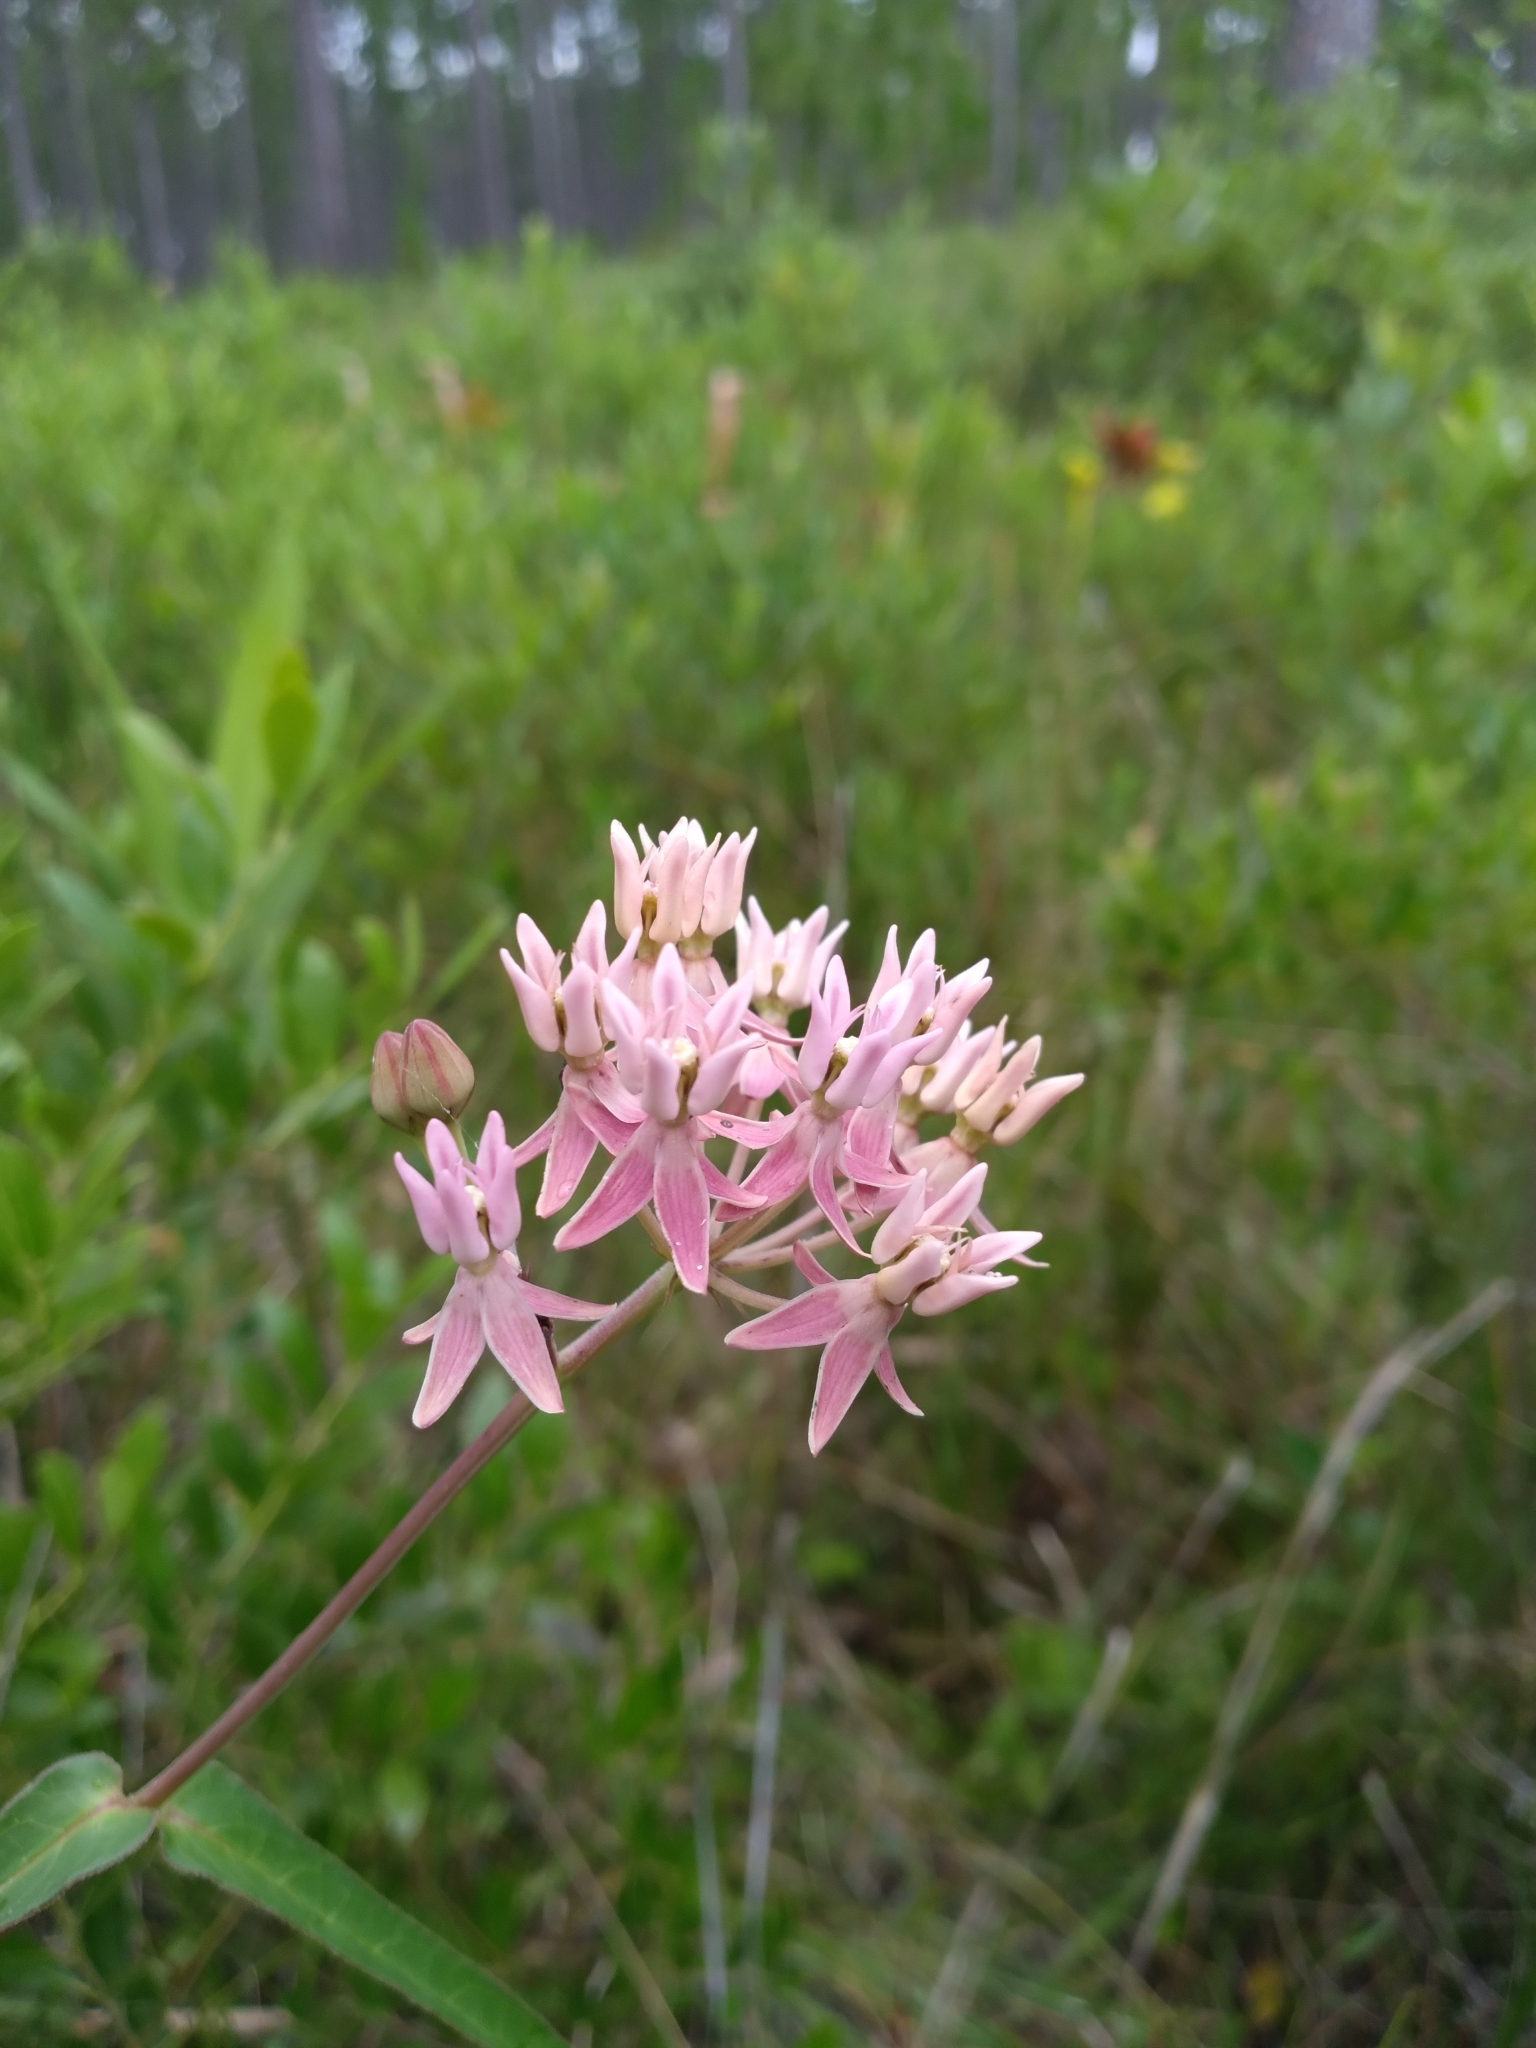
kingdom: Plantae
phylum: Tracheophyta
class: Magnoliopsida
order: Gentianales
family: Apocynaceae
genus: Asclepias
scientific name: Asclepias rubra
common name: Red milkweed
